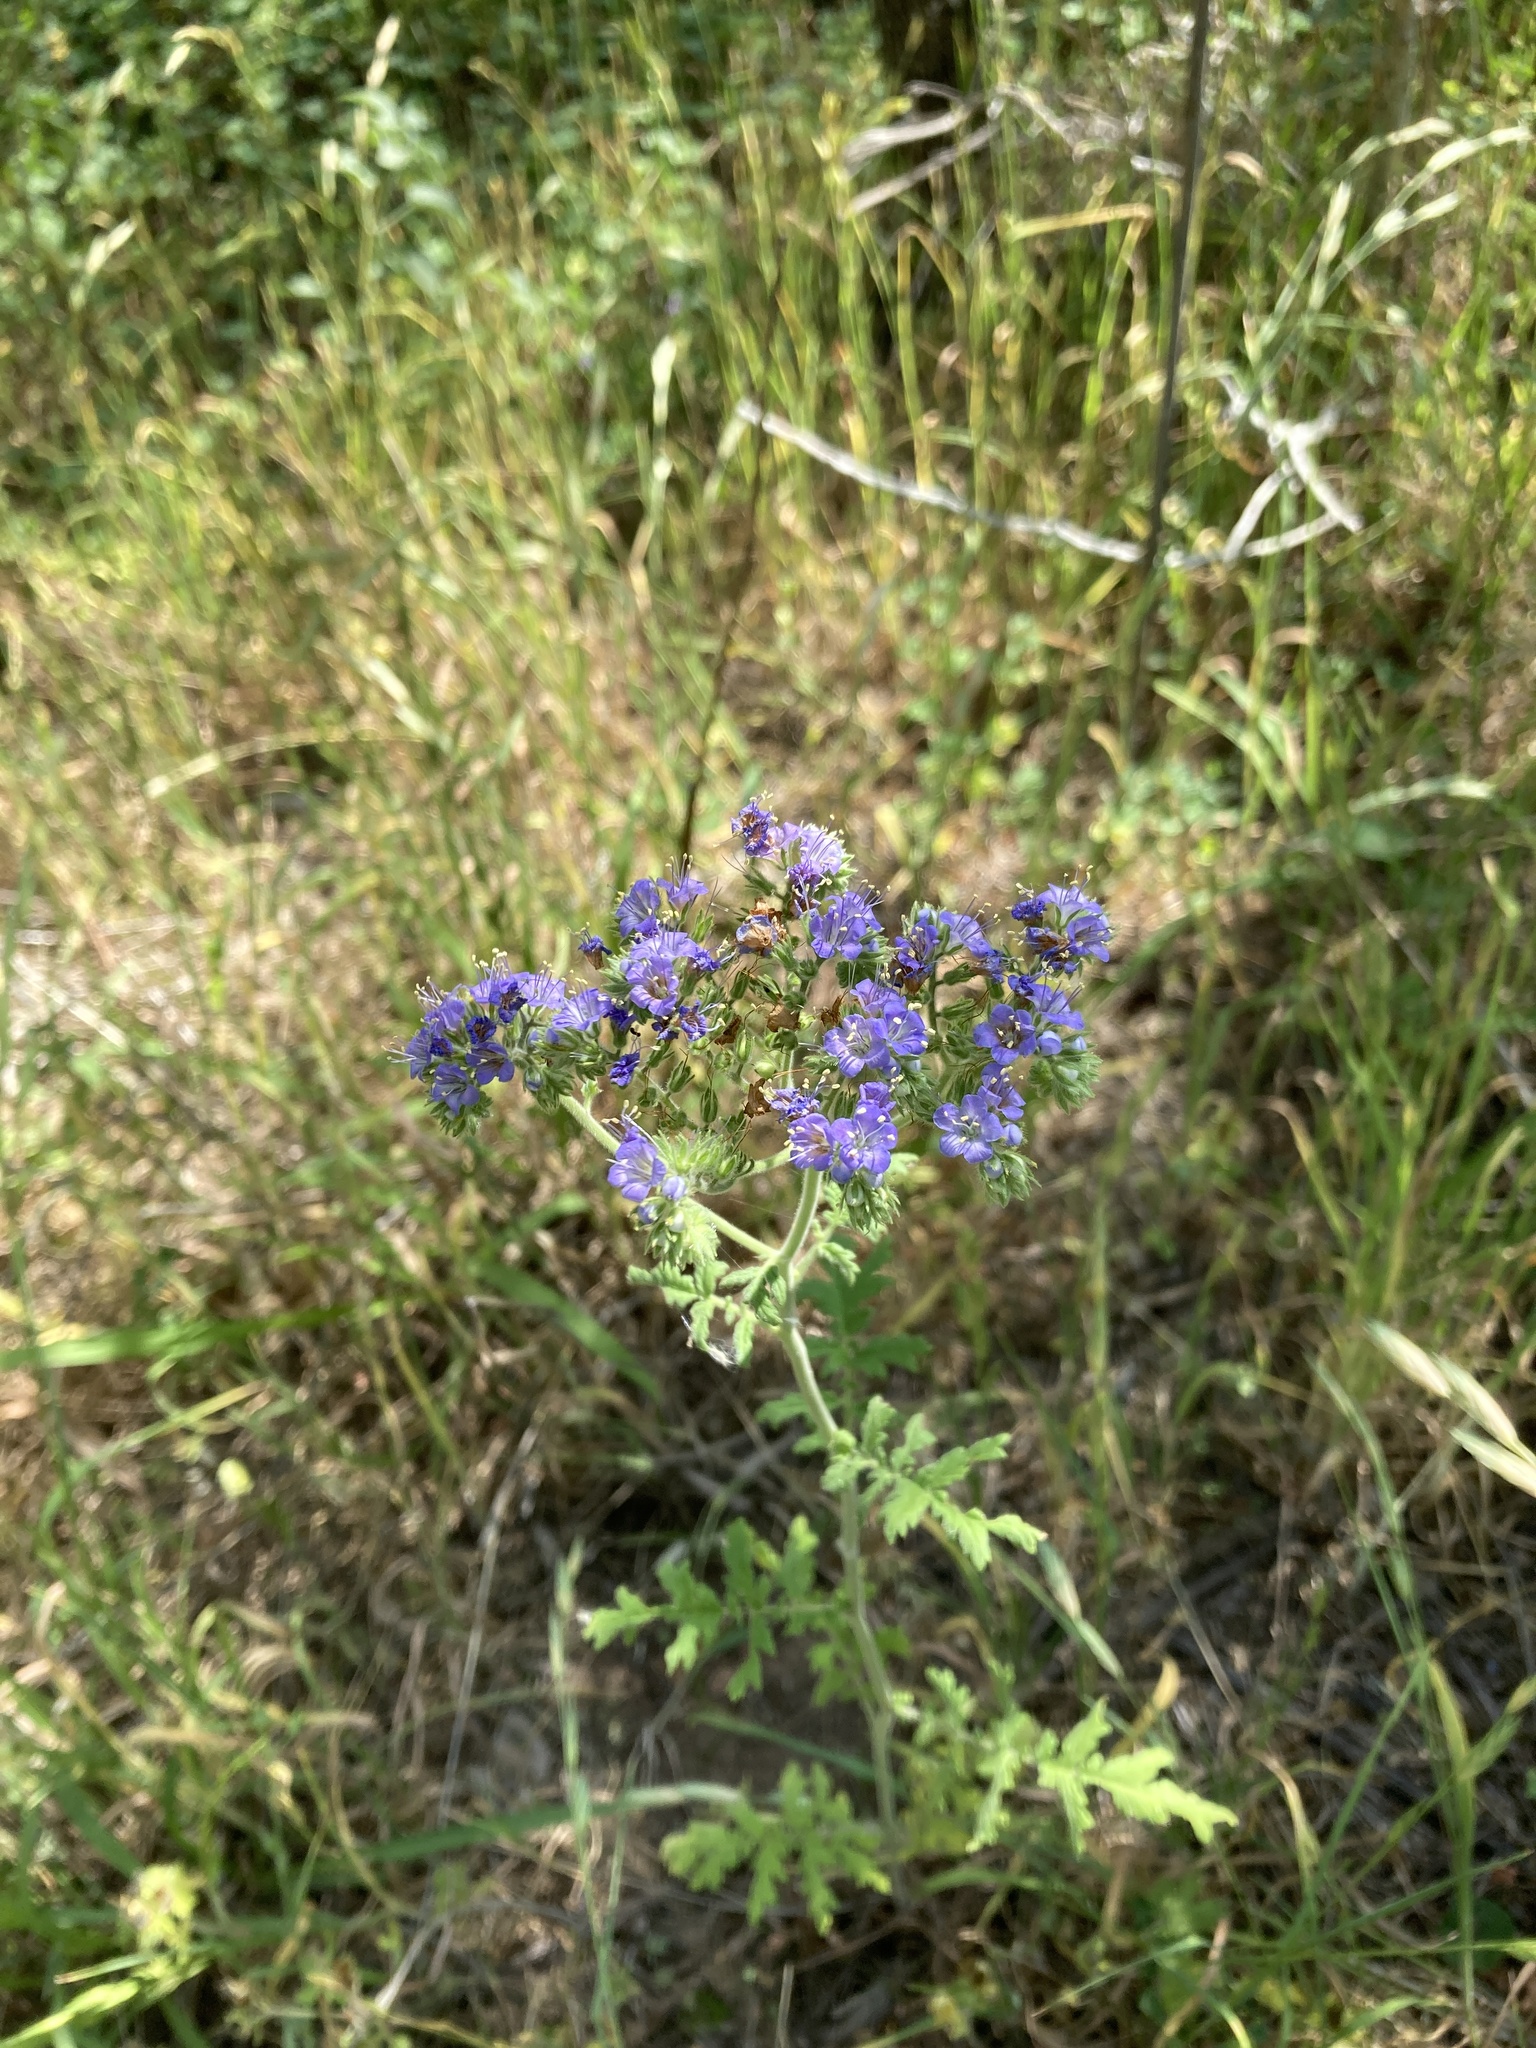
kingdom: Plantae
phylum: Tracheophyta
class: Magnoliopsida
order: Boraginales
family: Hydrophyllaceae
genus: Phacelia
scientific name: Phacelia congesta
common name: Blue curls
